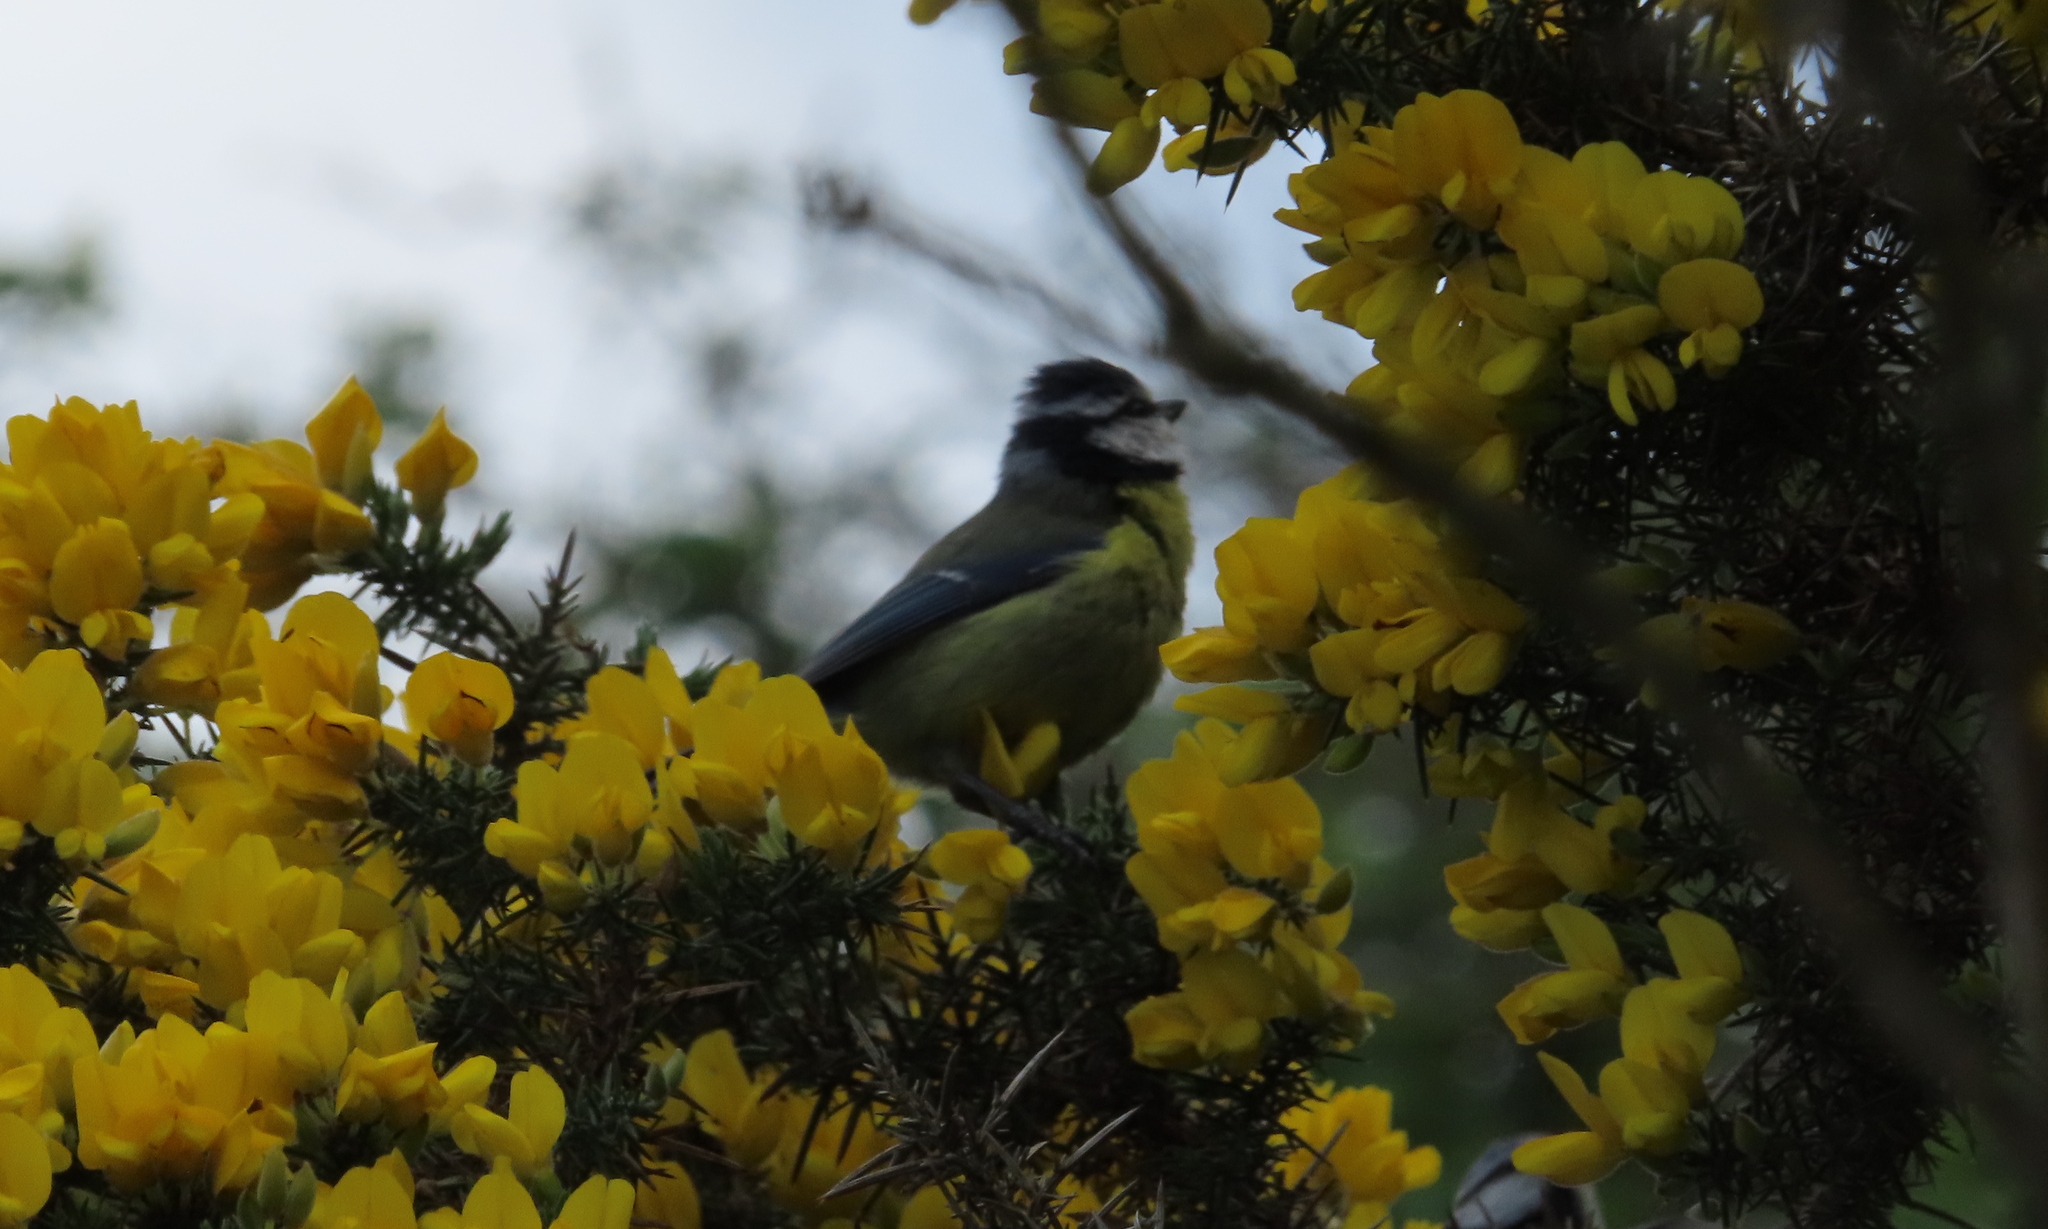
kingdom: Animalia
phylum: Chordata
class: Aves
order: Passeriformes
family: Paridae
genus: Cyanistes
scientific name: Cyanistes caeruleus
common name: Eurasian blue tit
